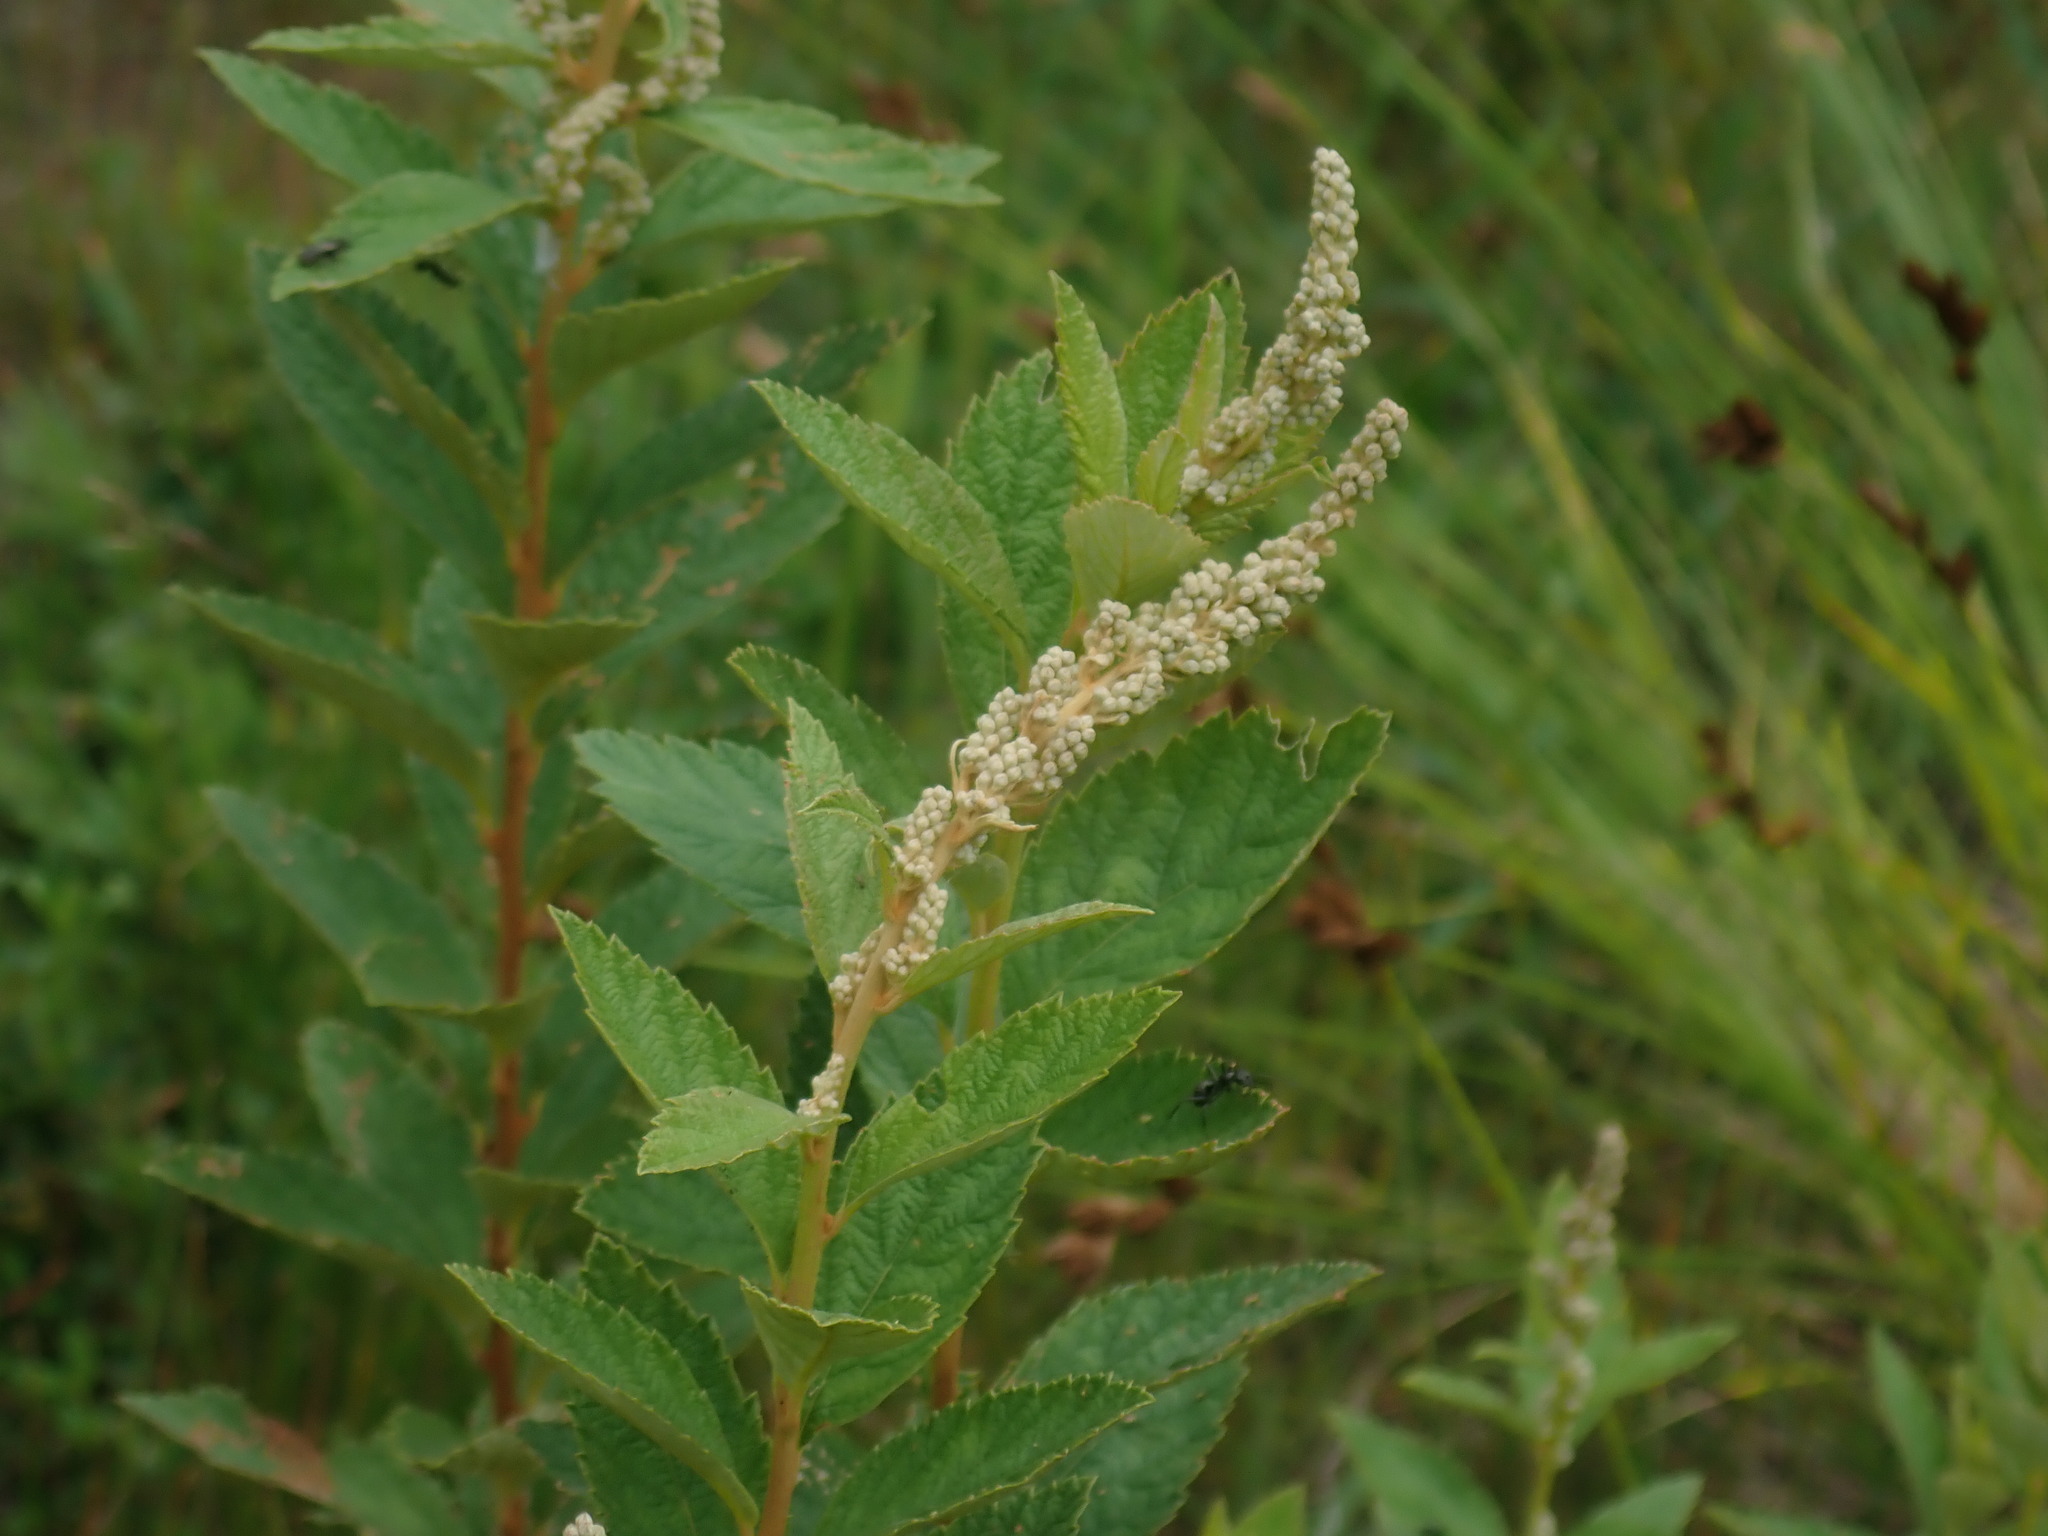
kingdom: Plantae
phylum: Tracheophyta
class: Magnoliopsida
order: Rosales
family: Rosaceae
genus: Spiraea
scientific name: Spiraea tomentosa
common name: Hardhack
